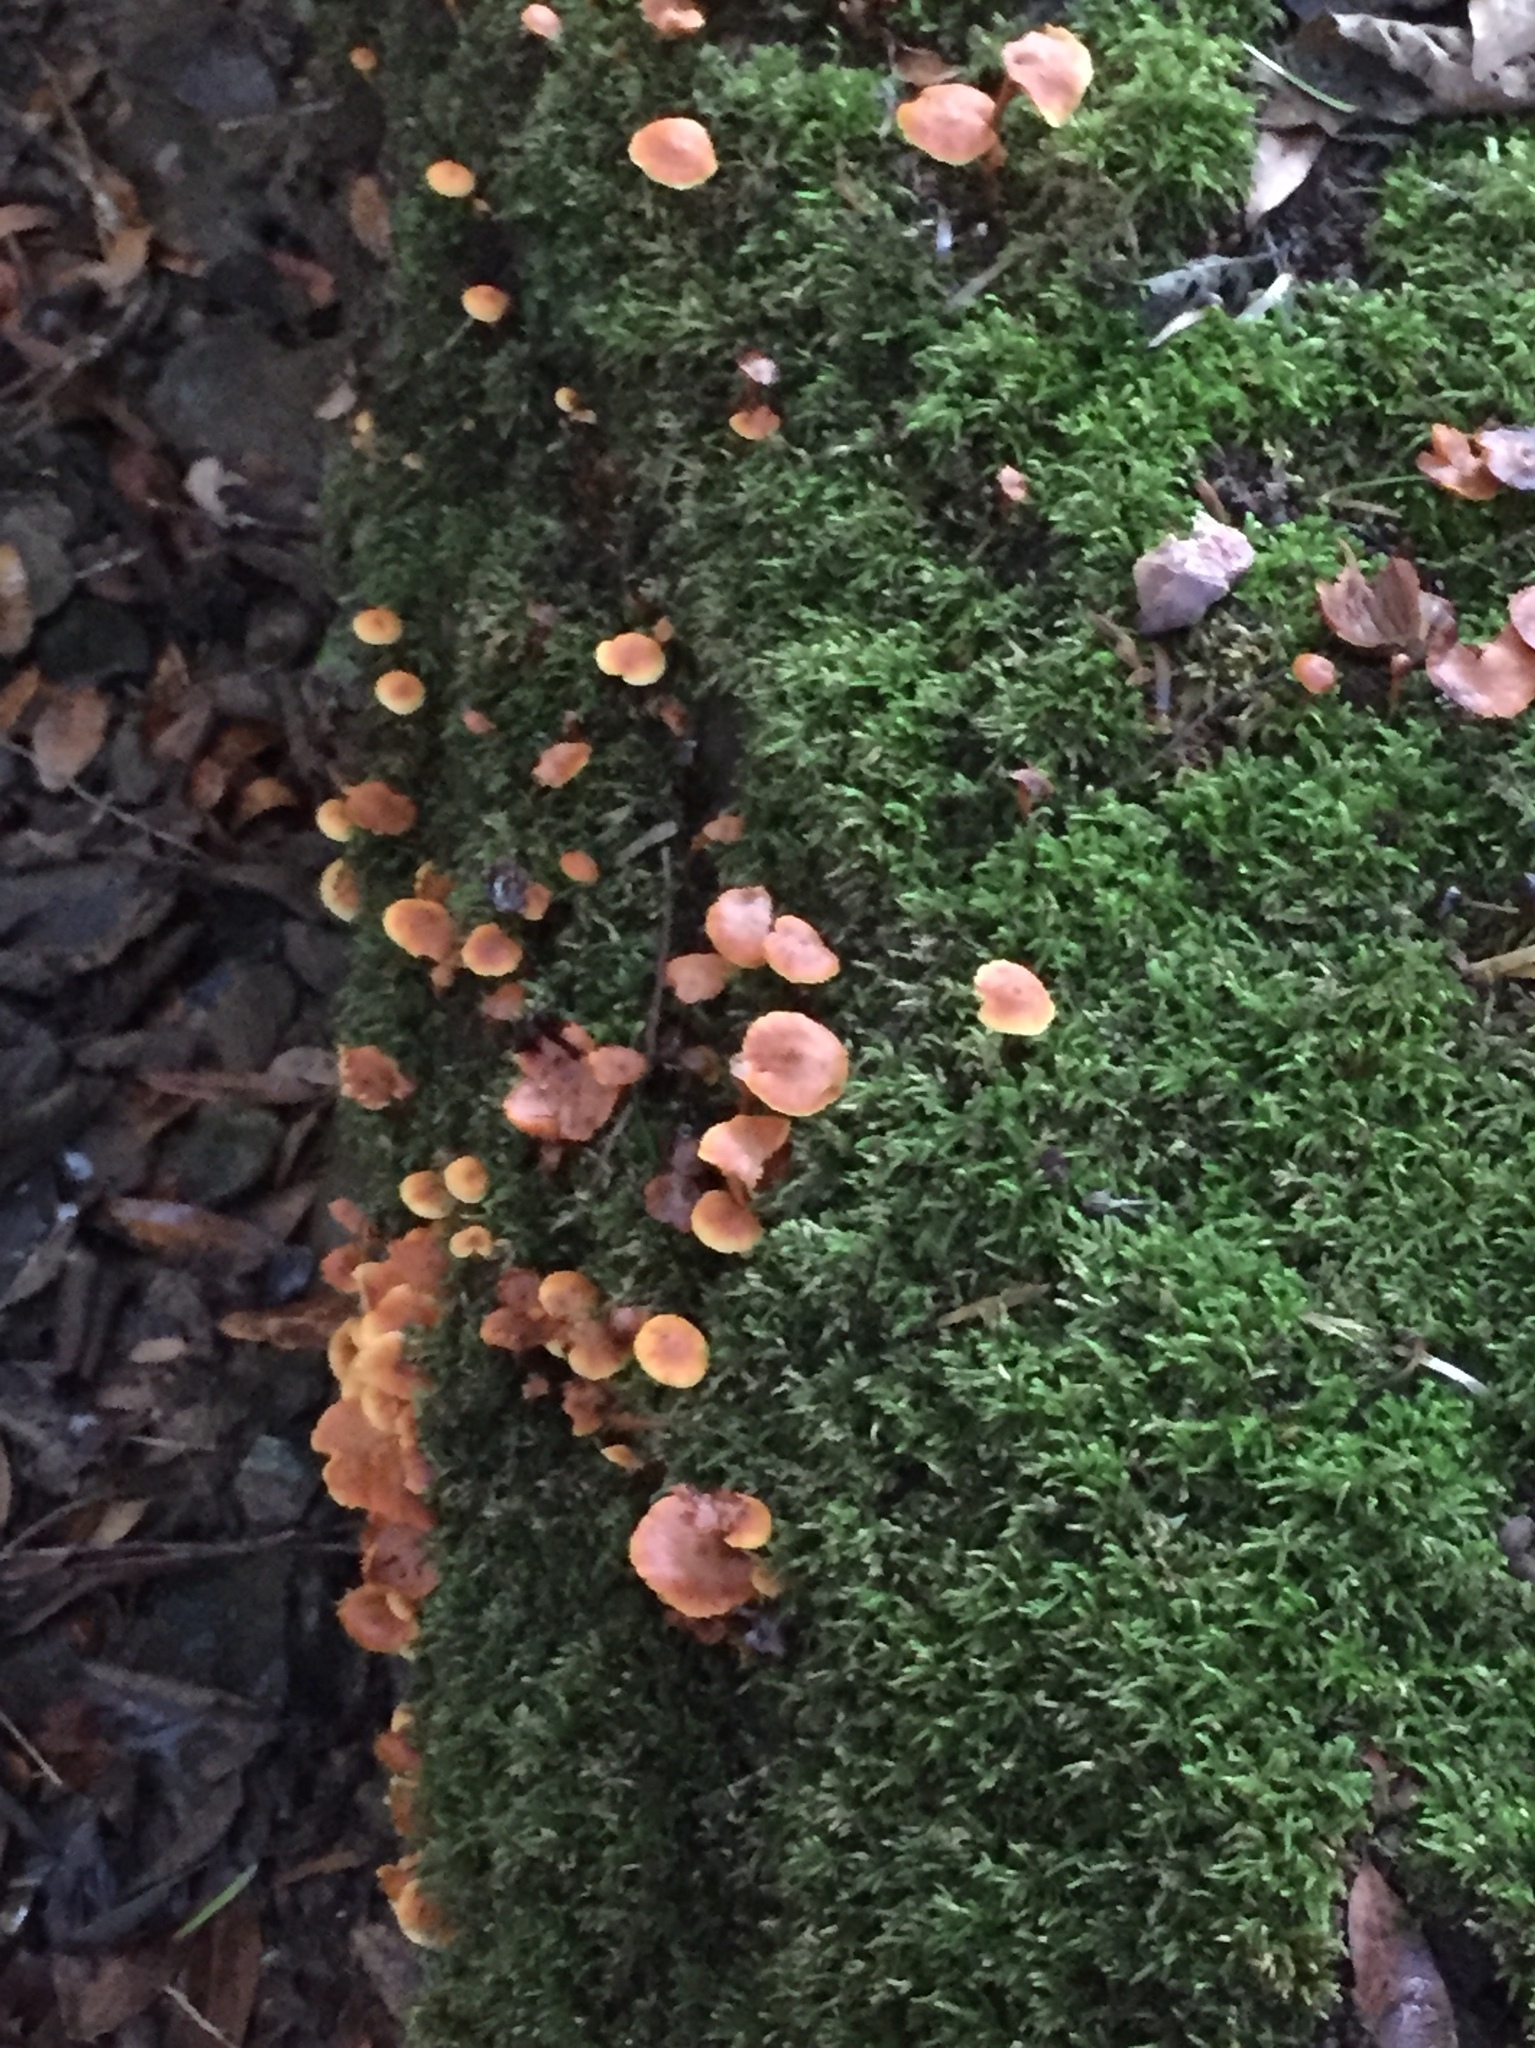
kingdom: Fungi
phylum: Basidiomycota
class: Agaricomycetes
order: Agaricales
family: Mycenaceae
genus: Xeromphalina
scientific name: Xeromphalina campanella
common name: Pinewood gingertail
